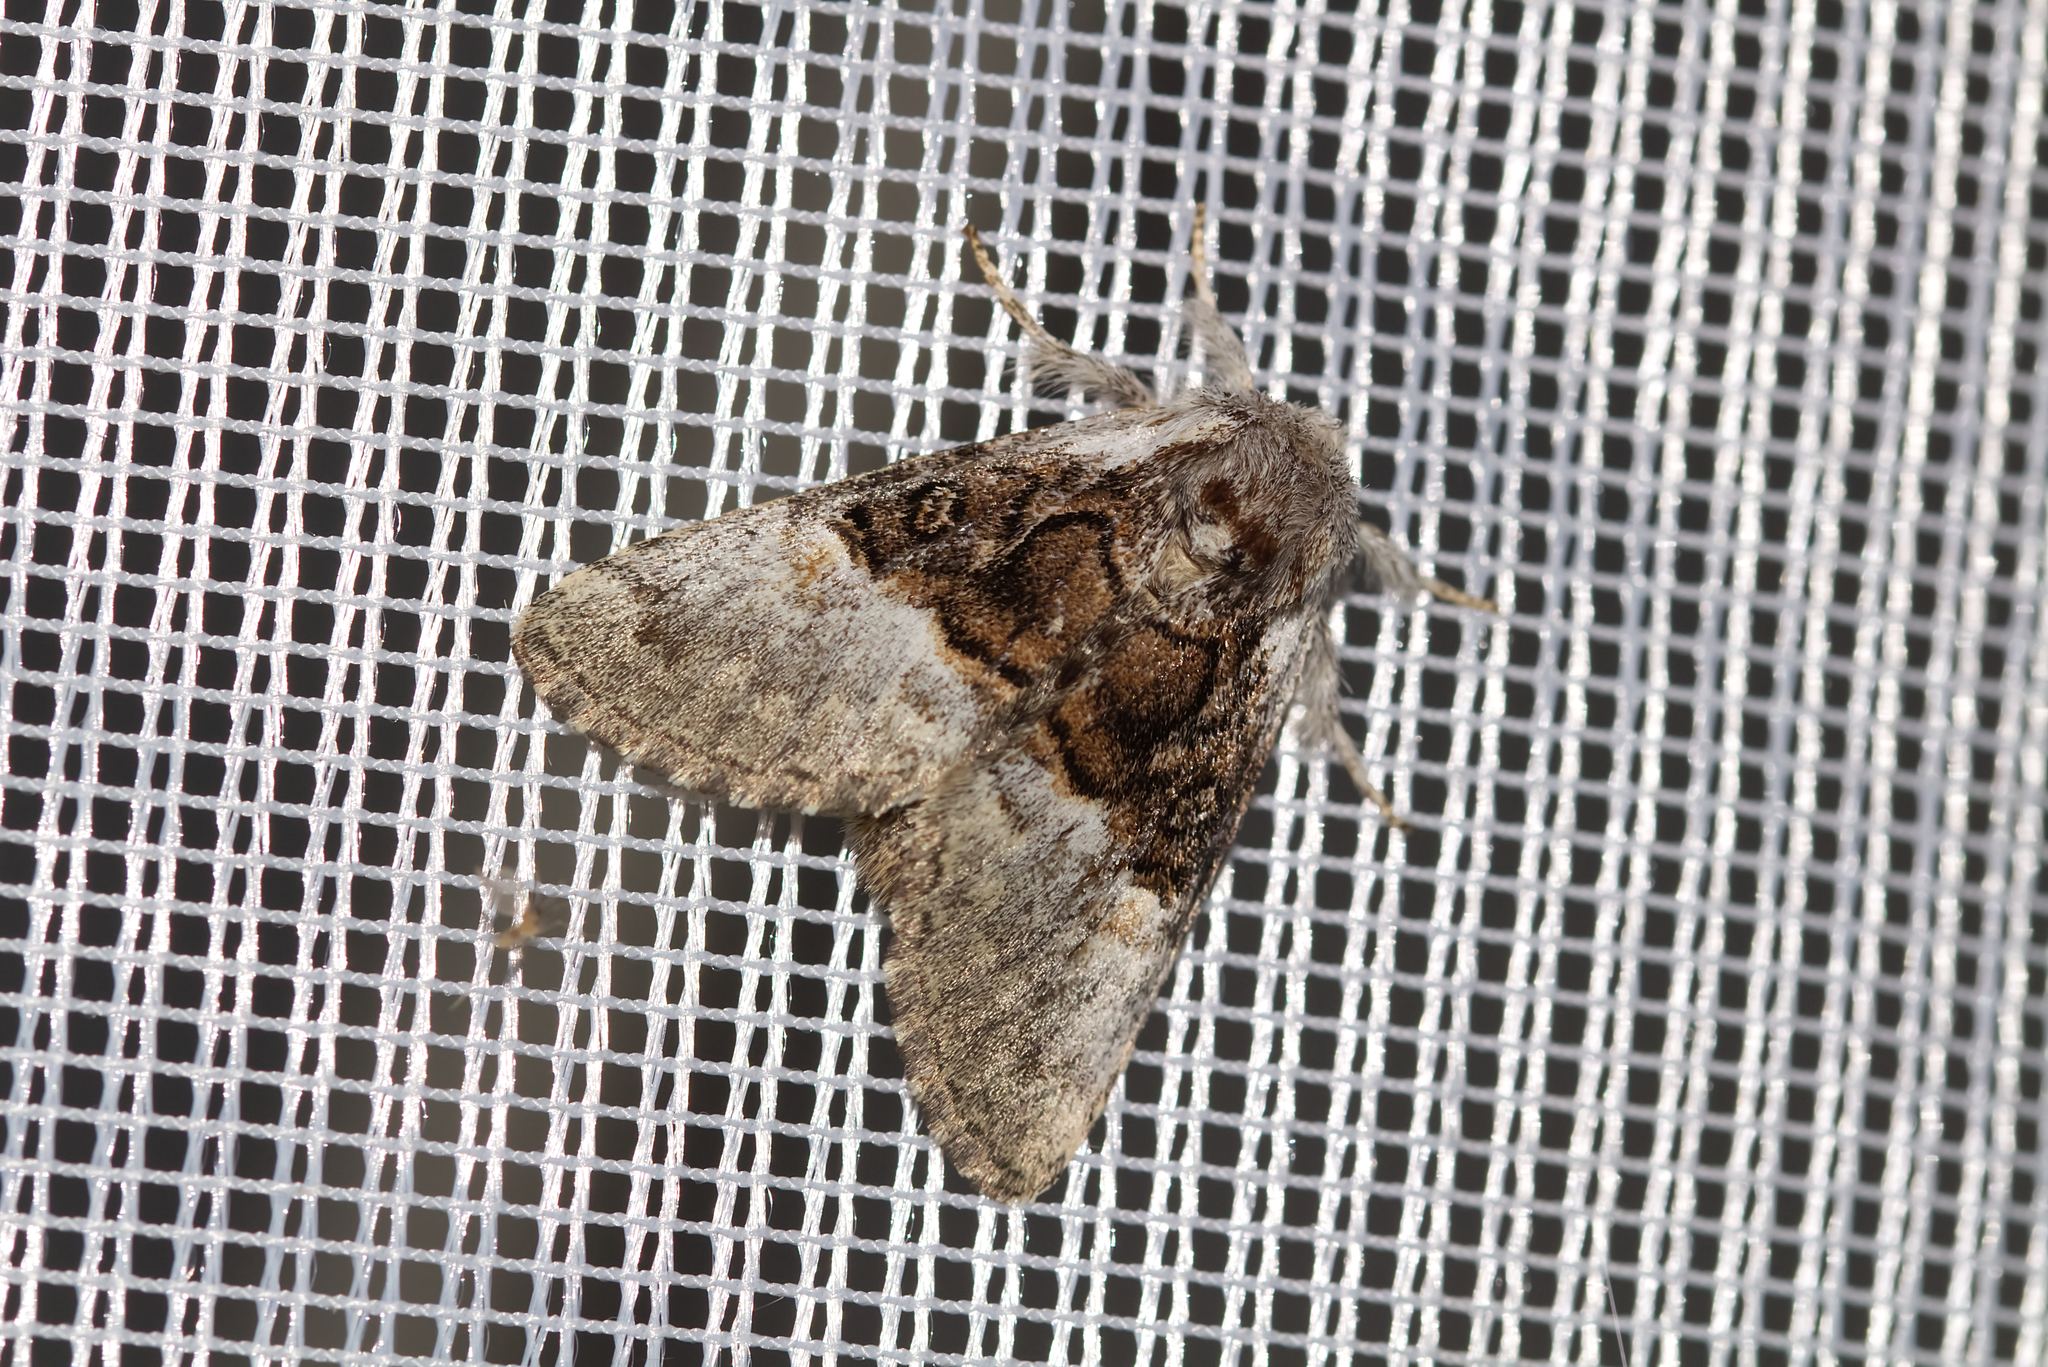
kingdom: Animalia
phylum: Arthropoda
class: Insecta
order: Lepidoptera
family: Noctuidae
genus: Colocasia
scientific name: Colocasia coryli
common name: Nut-tree tussock
